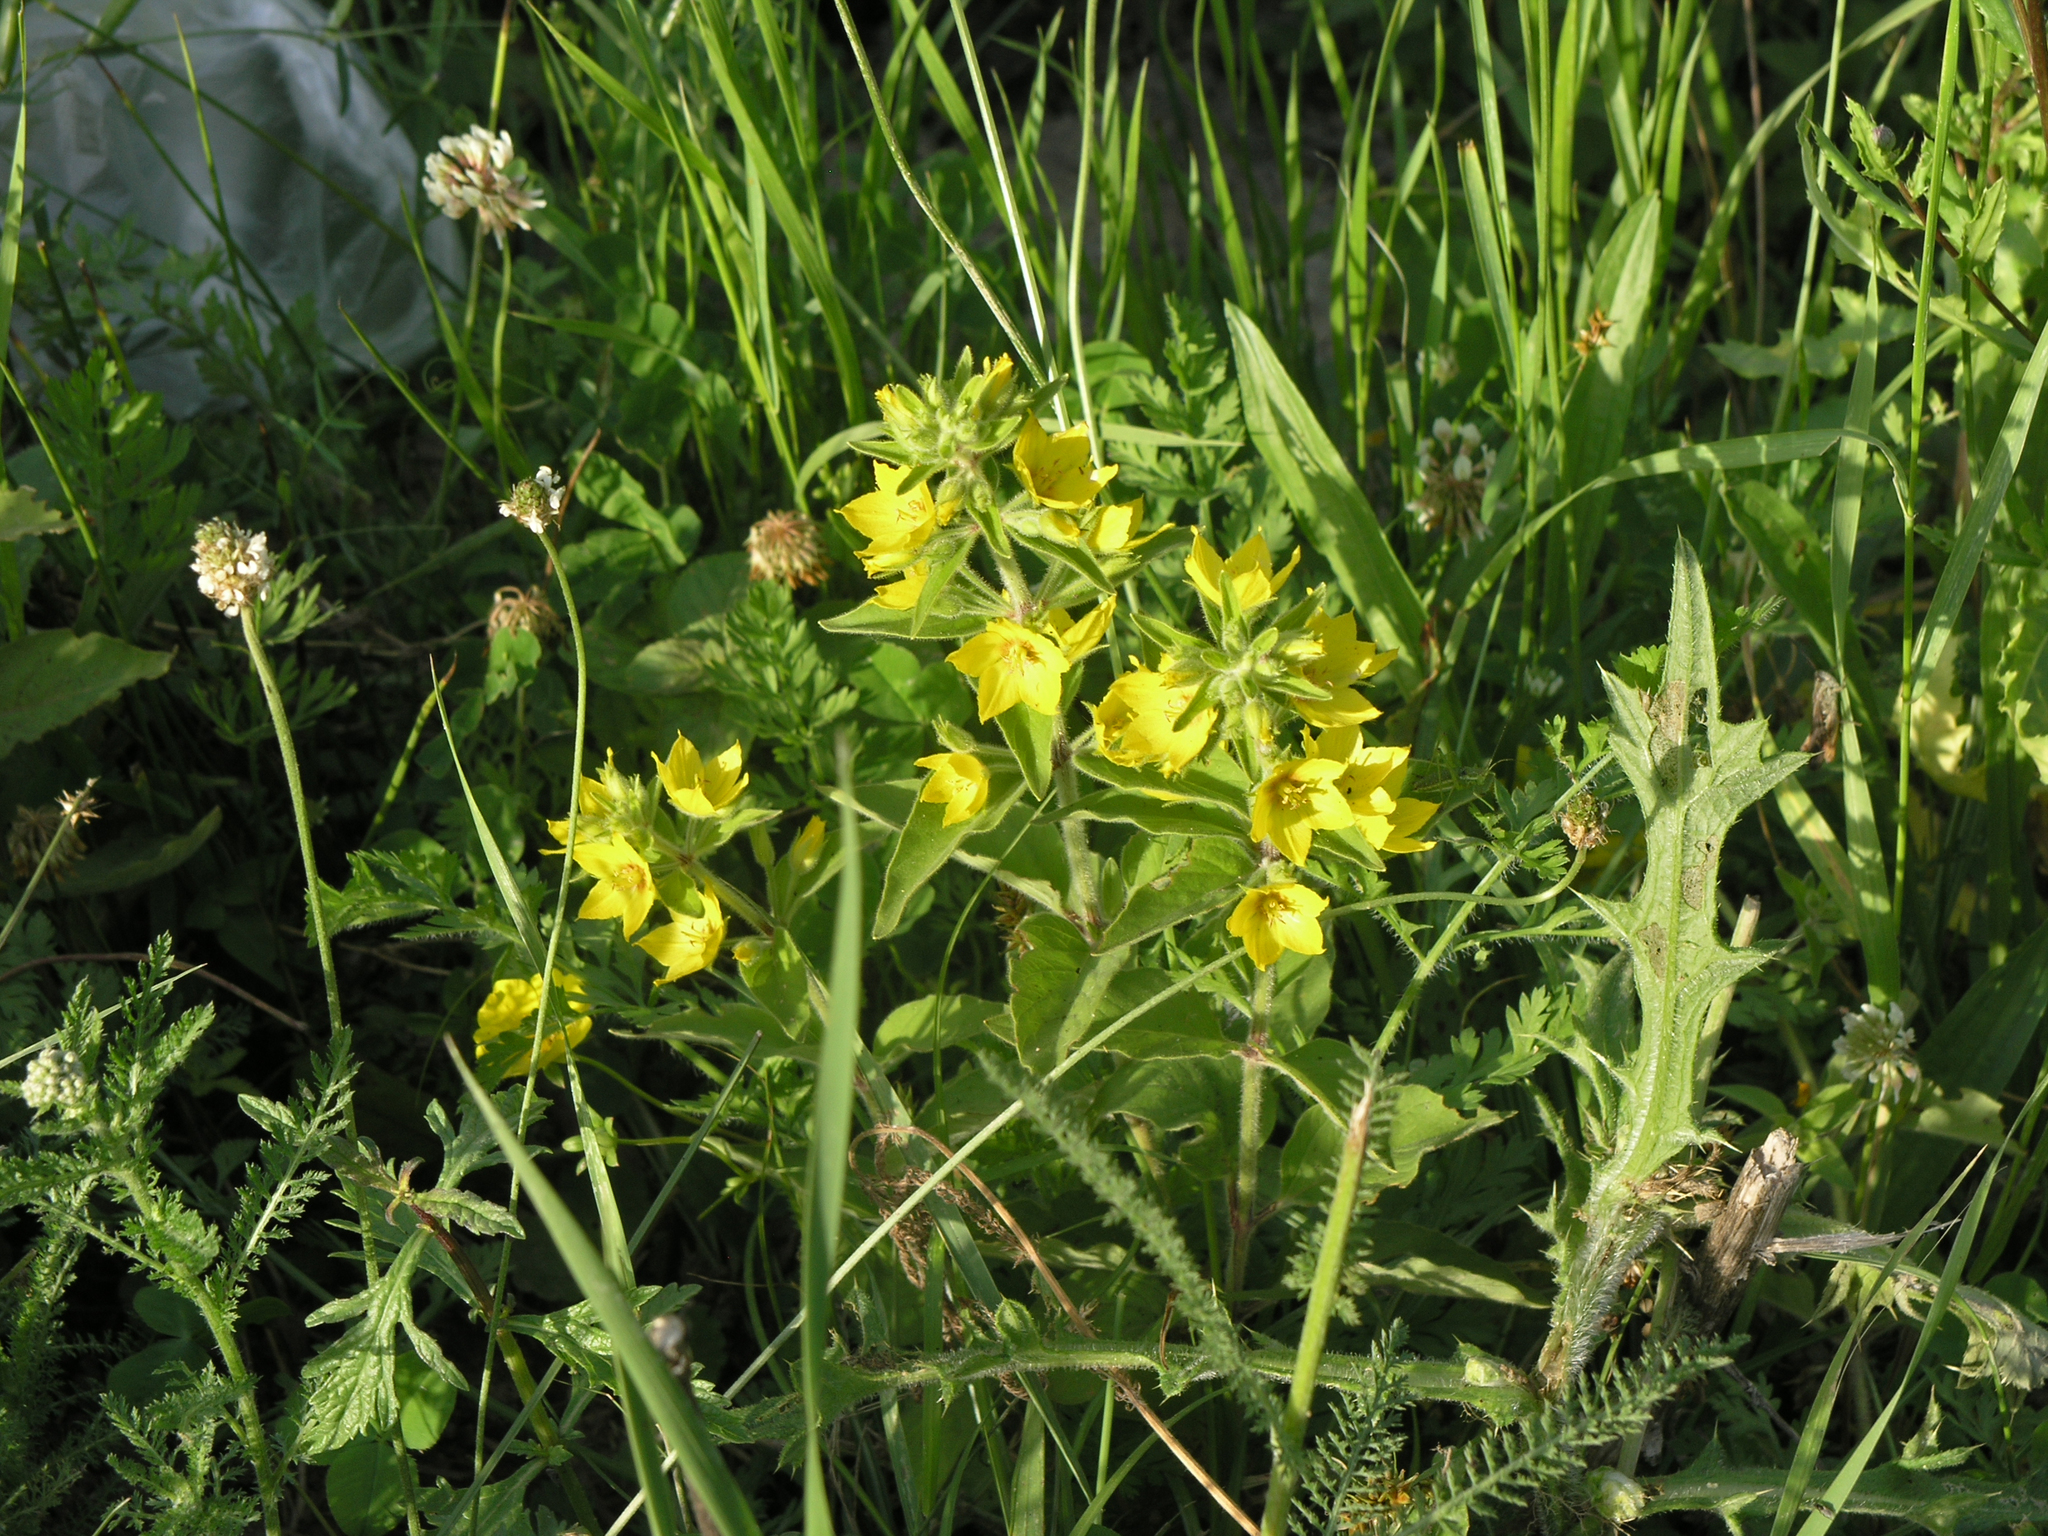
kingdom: Plantae
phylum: Tracheophyta
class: Magnoliopsida
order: Ericales
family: Primulaceae
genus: Lysimachia
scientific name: Lysimachia verticillaris
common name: Yellow loosestrife
